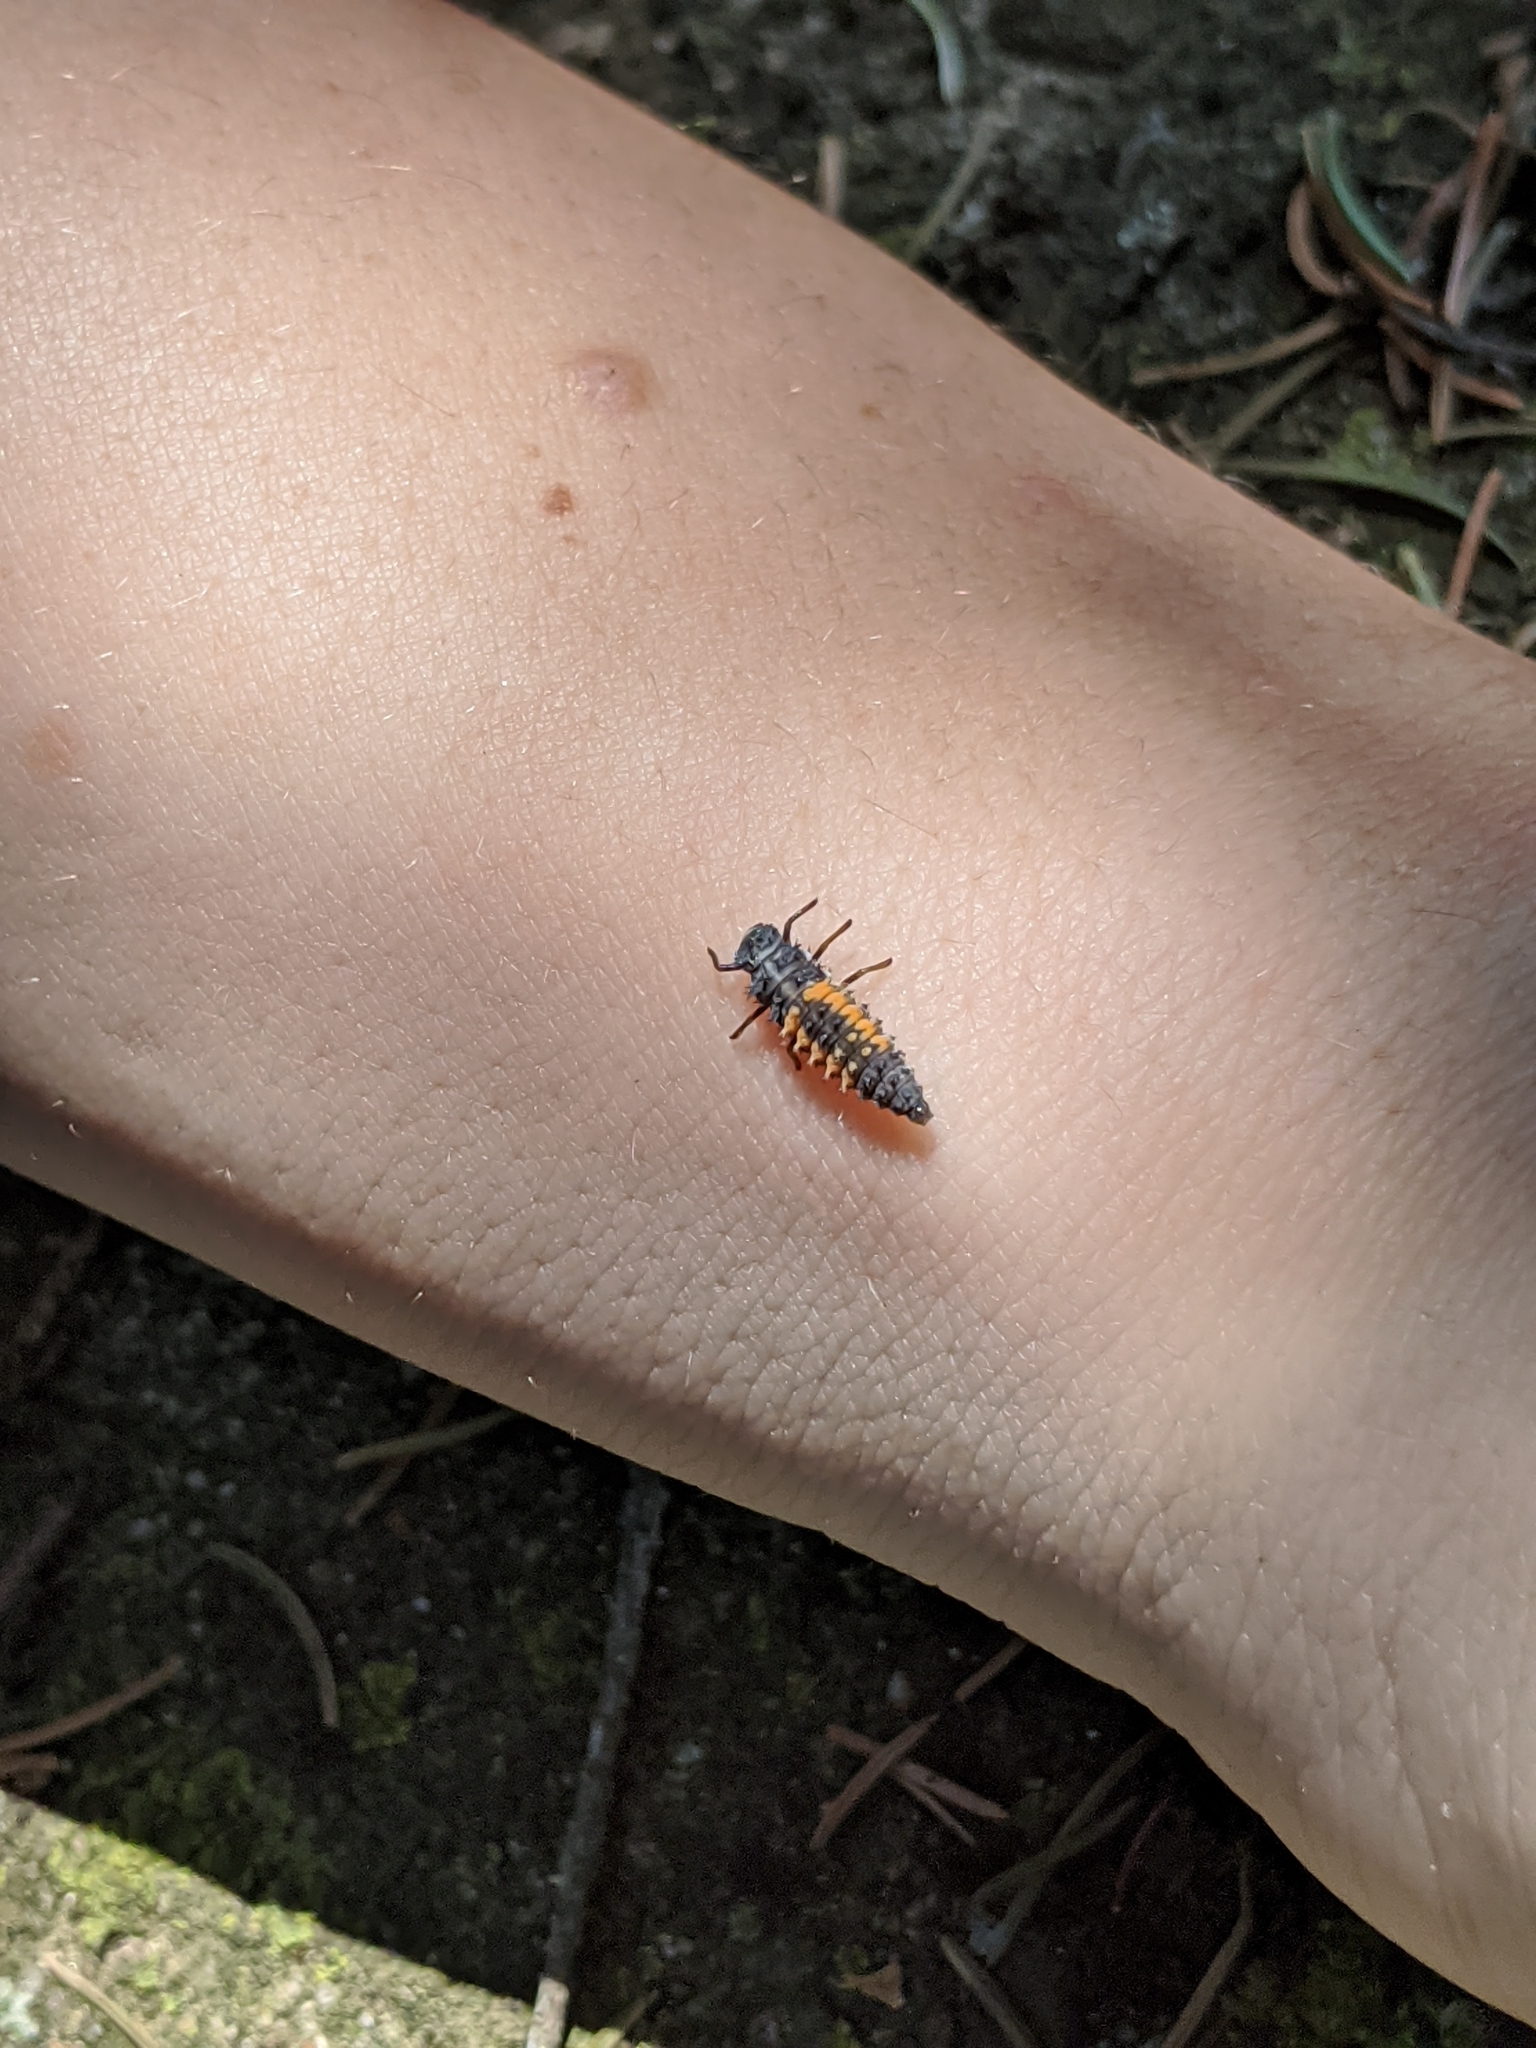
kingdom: Animalia
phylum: Arthropoda
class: Insecta
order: Coleoptera
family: Coccinellidae
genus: Harmonia
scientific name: Harmonia axyridis
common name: Harlequin ladybird
